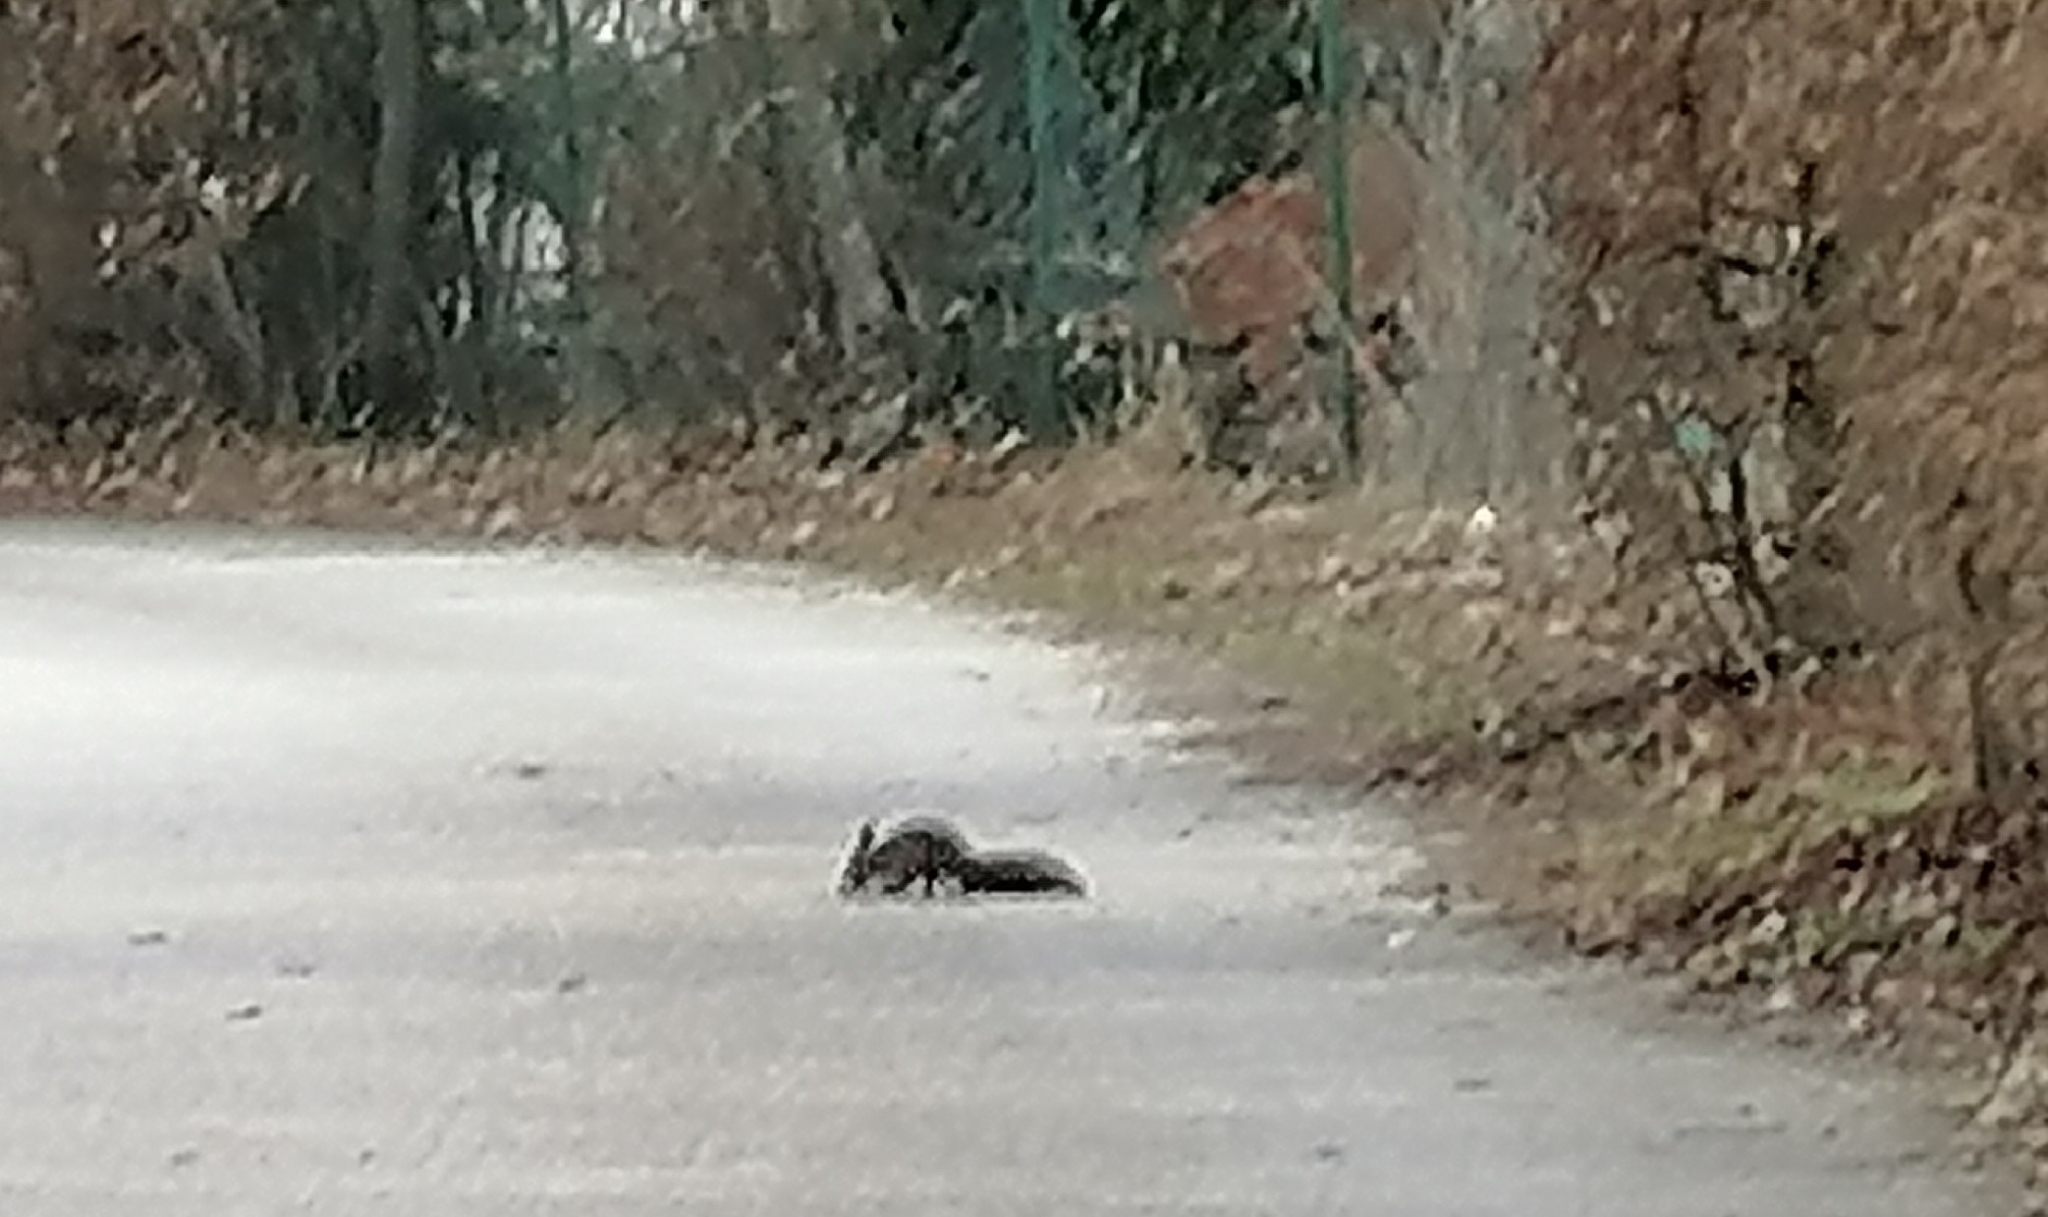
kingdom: Animalia
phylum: Chordata
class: Mammalia
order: Rodentia
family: Sciuridae
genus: Sciurus
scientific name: Sciurus vulgaris
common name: Eurasian red squirrel
